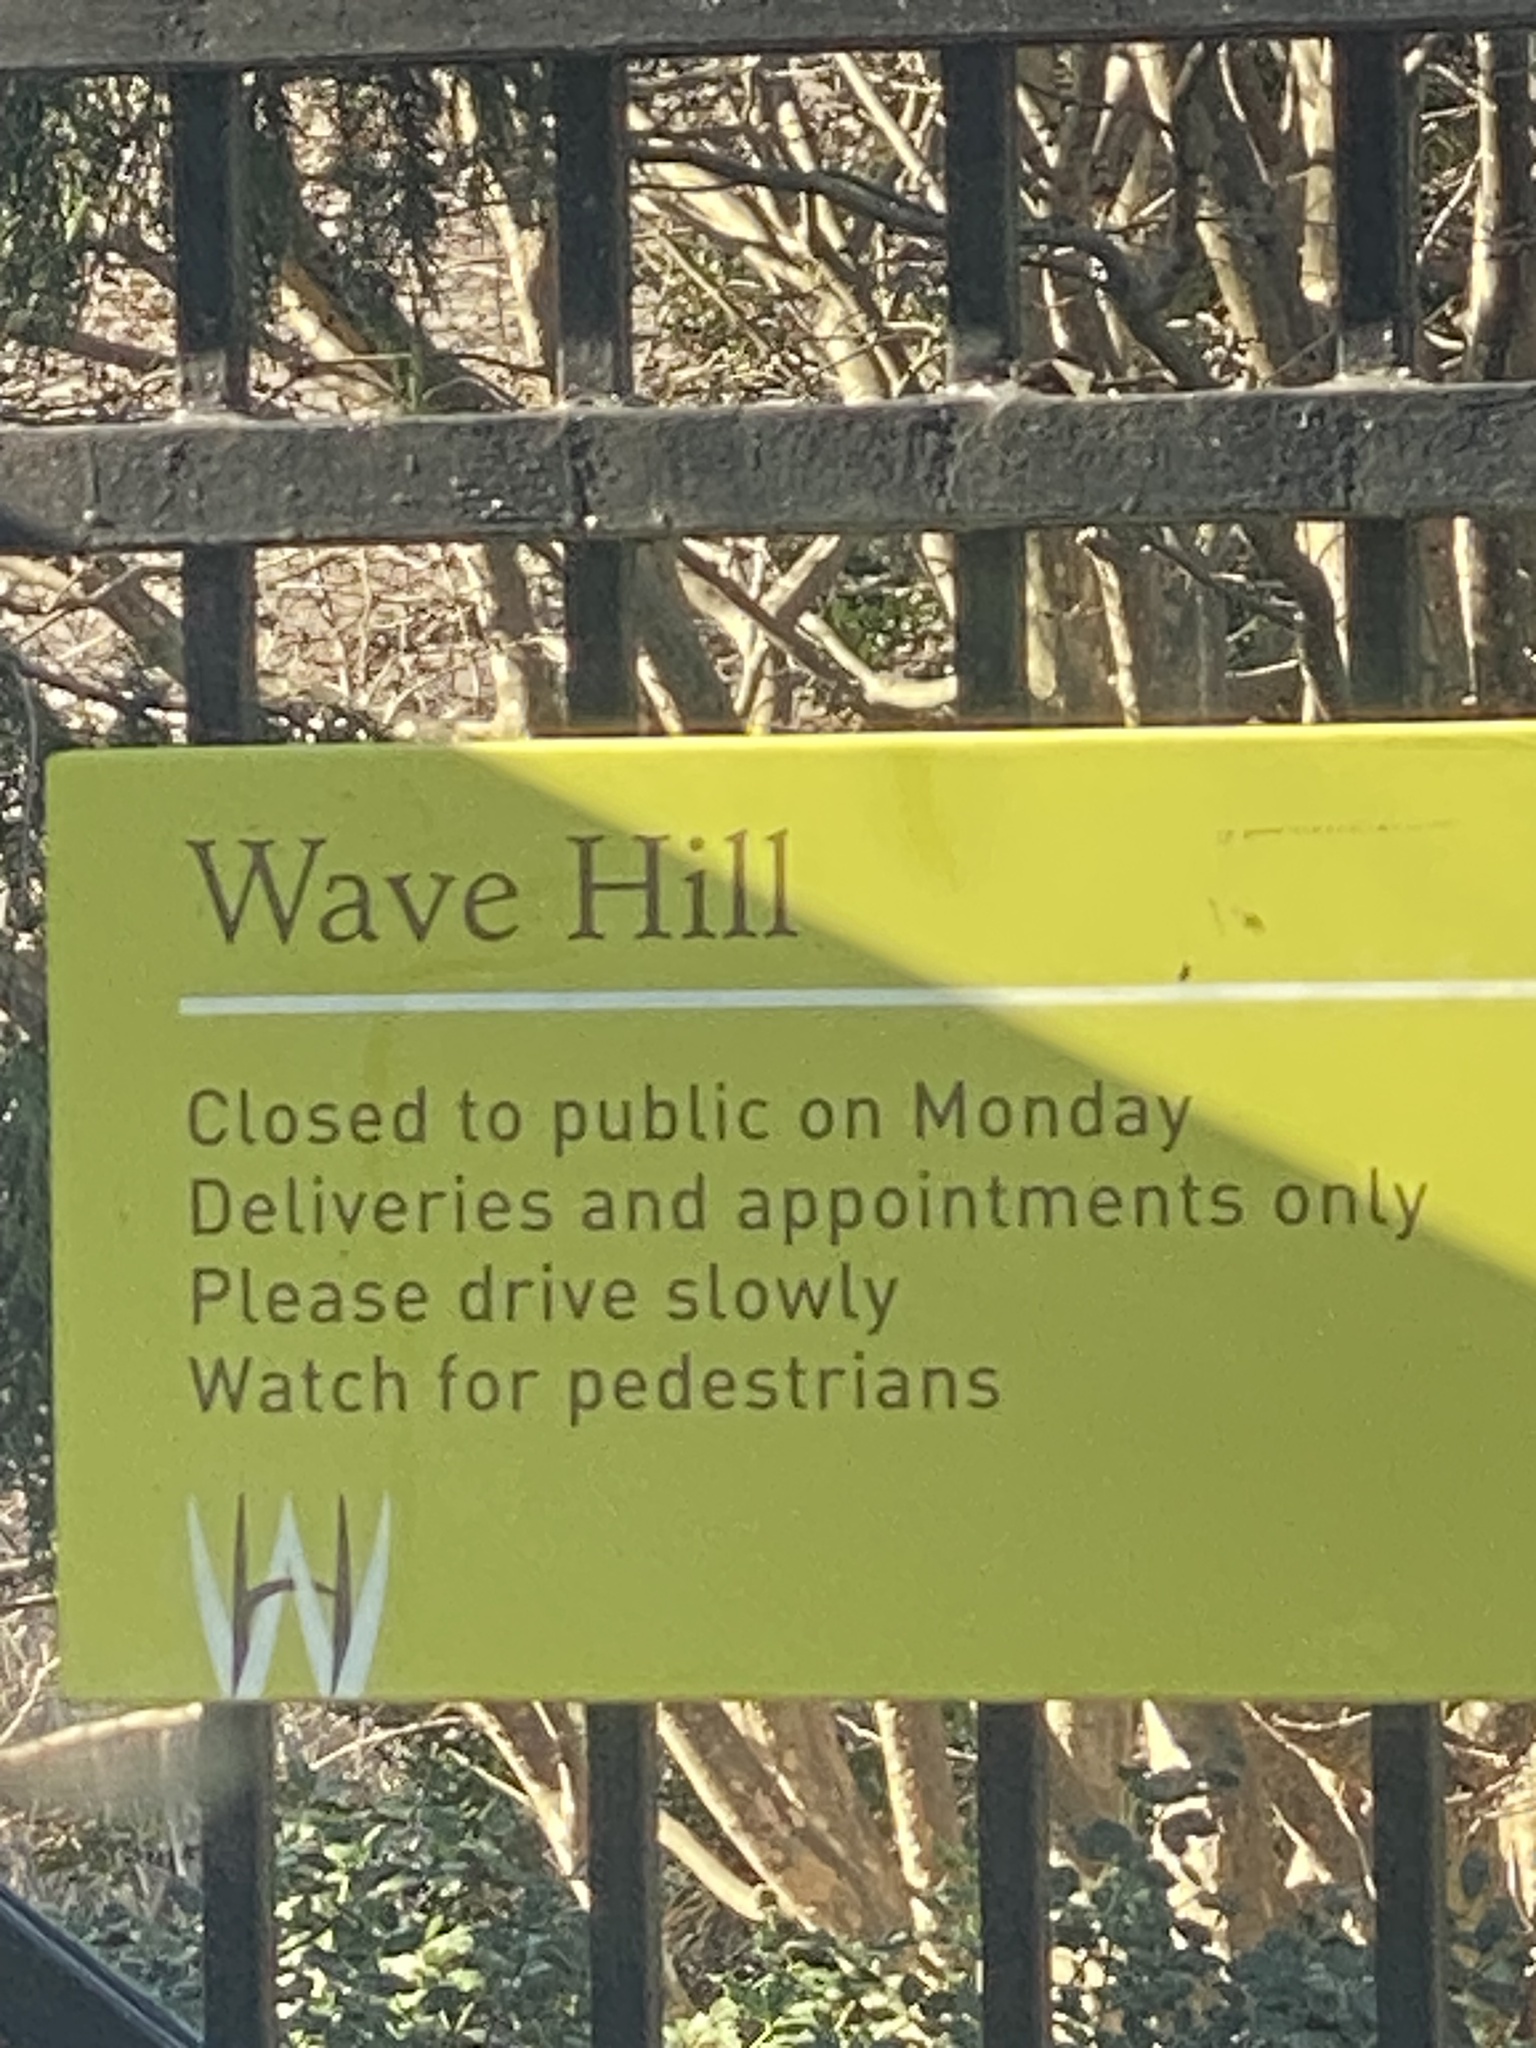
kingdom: Plantae
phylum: Tracheophyta
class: Magnoliopsida
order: Lamiales
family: Plantaginaceae
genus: Cymbalaria
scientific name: Cymbalaria muralis
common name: Ivy-leaved toadflax
